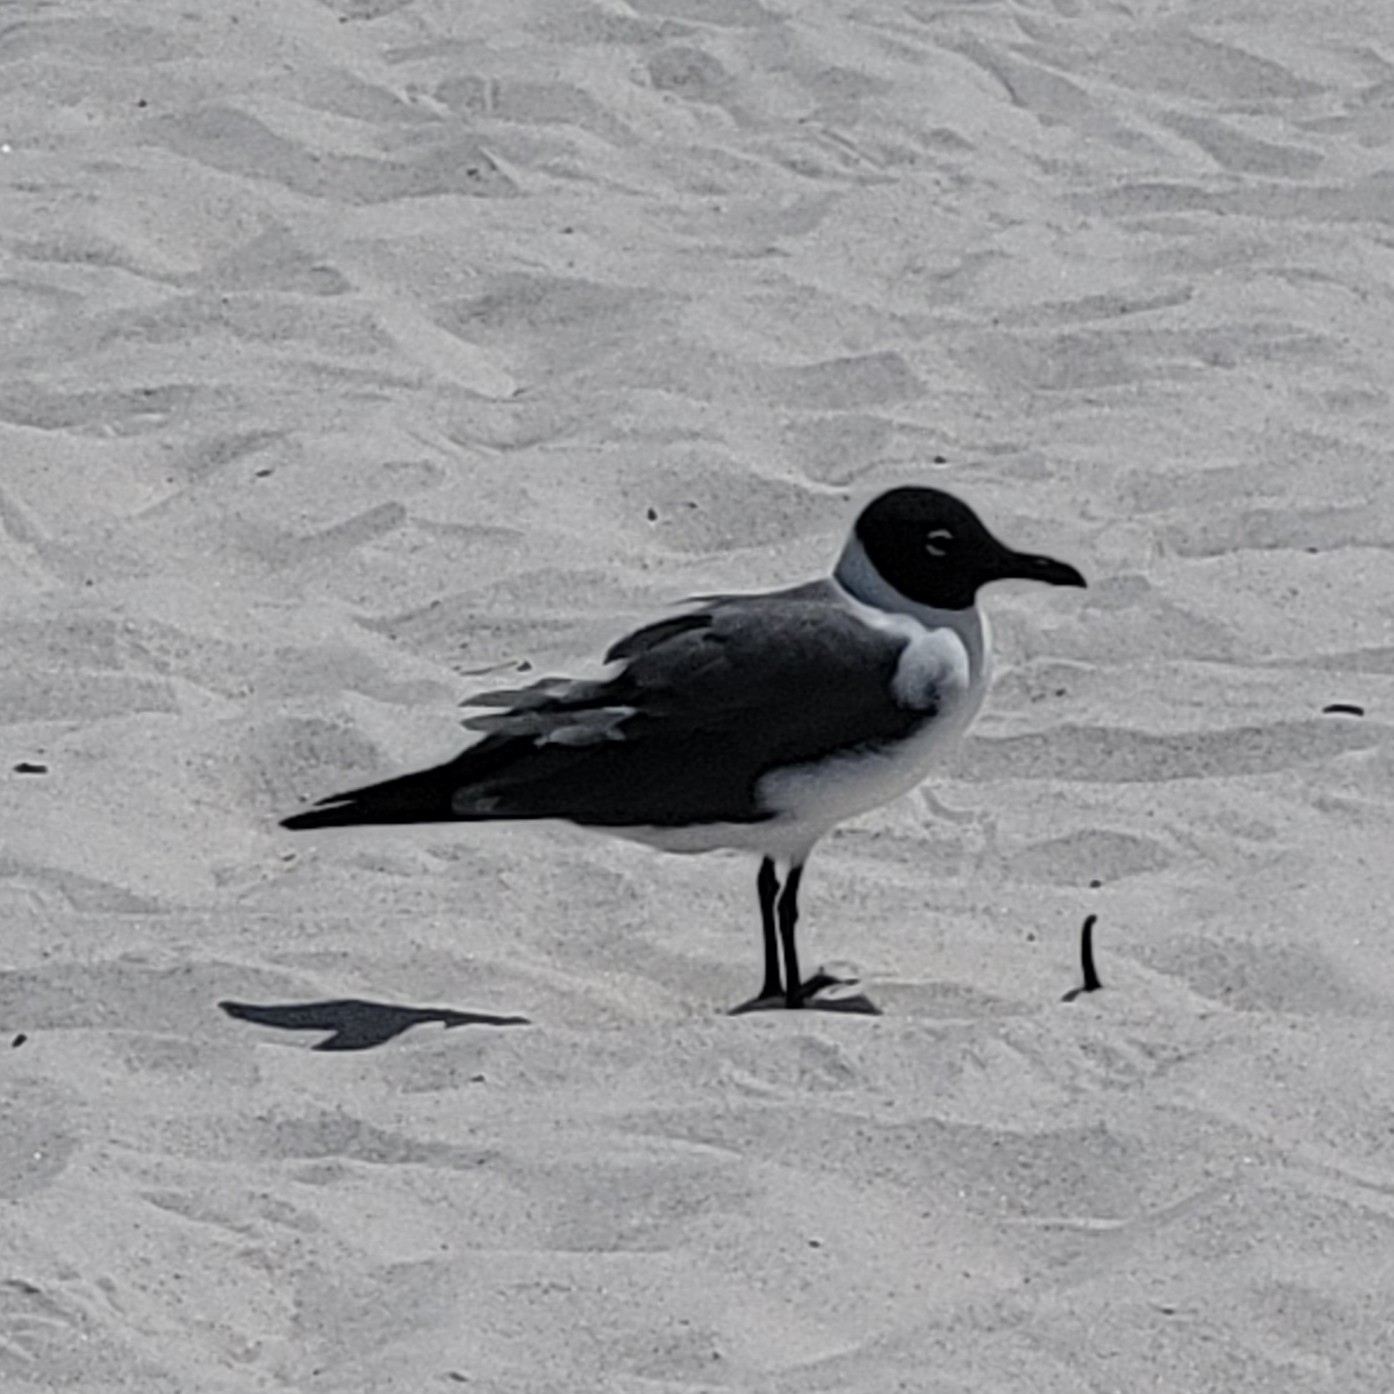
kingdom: Animalia
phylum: Chordata
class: Aves
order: Charadriiformes
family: Laridae
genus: Leucophaeus
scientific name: Leucophaeus atricilla
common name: Laughing gull
